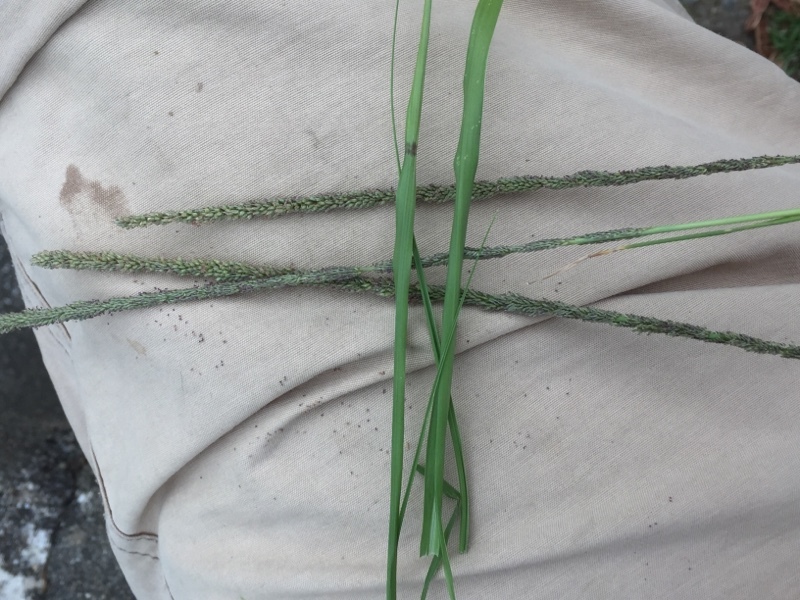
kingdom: Plantae
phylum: Tracheophyta
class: Liliopsida
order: Poales
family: Poaceae
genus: Sporobolus
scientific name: Sporobolus indicus
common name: Smut grass
